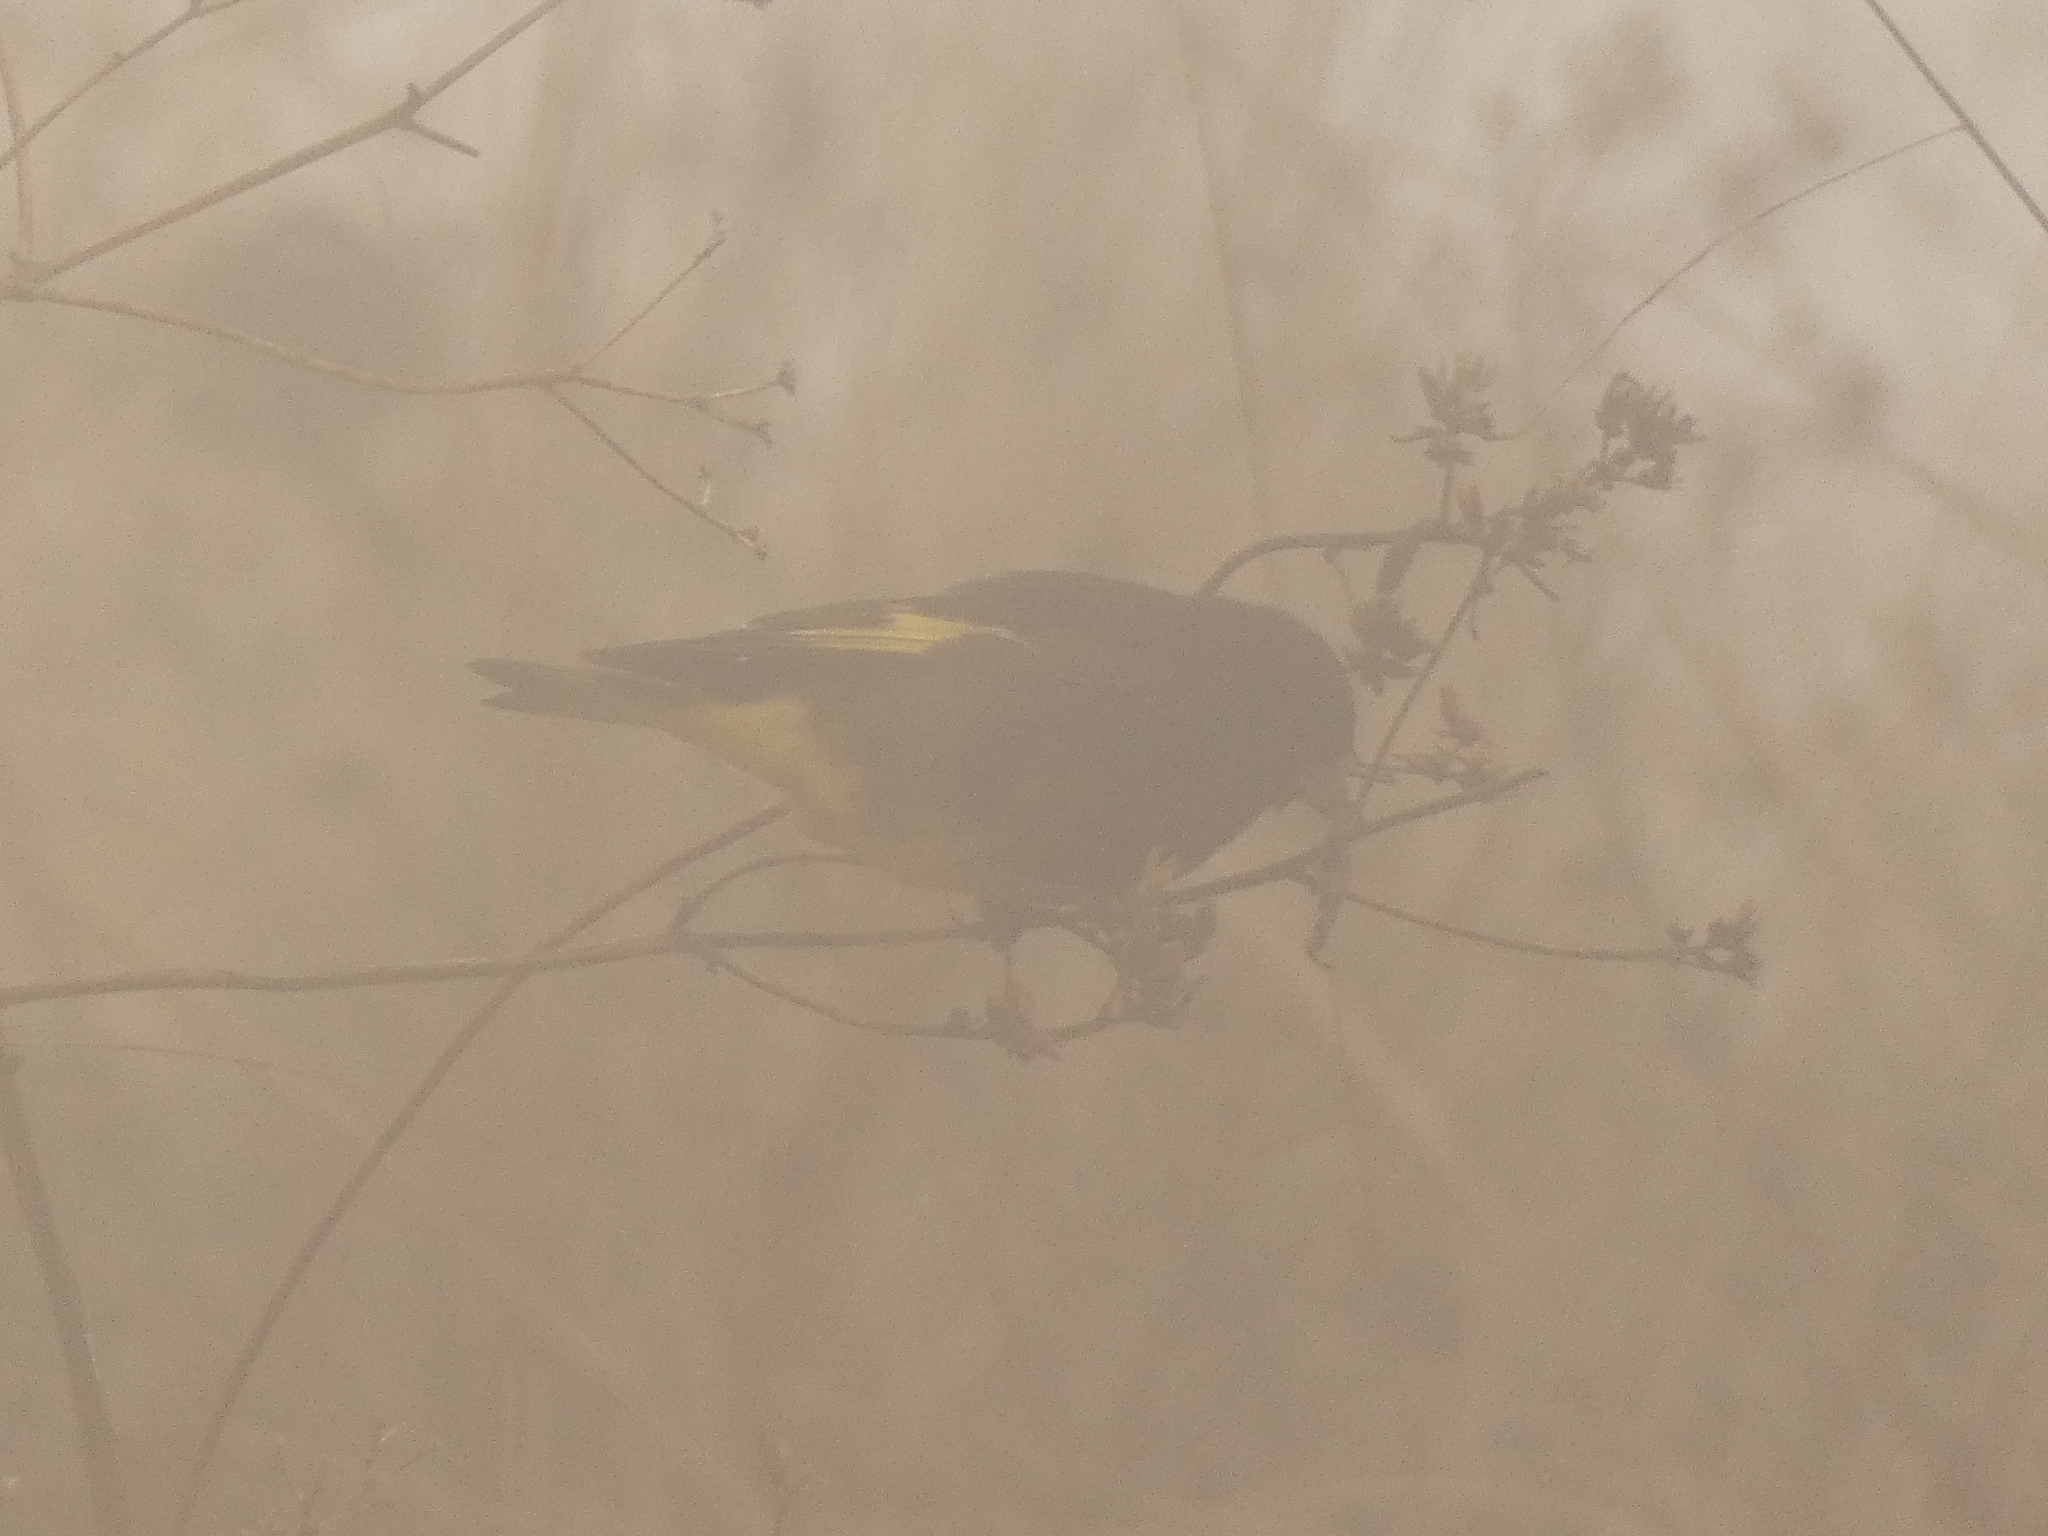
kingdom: Animalia
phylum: Chordata
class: Aves
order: Passeriformes
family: Fringillidae
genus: Spinus
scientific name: Spinus atratus
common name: Black siskin
